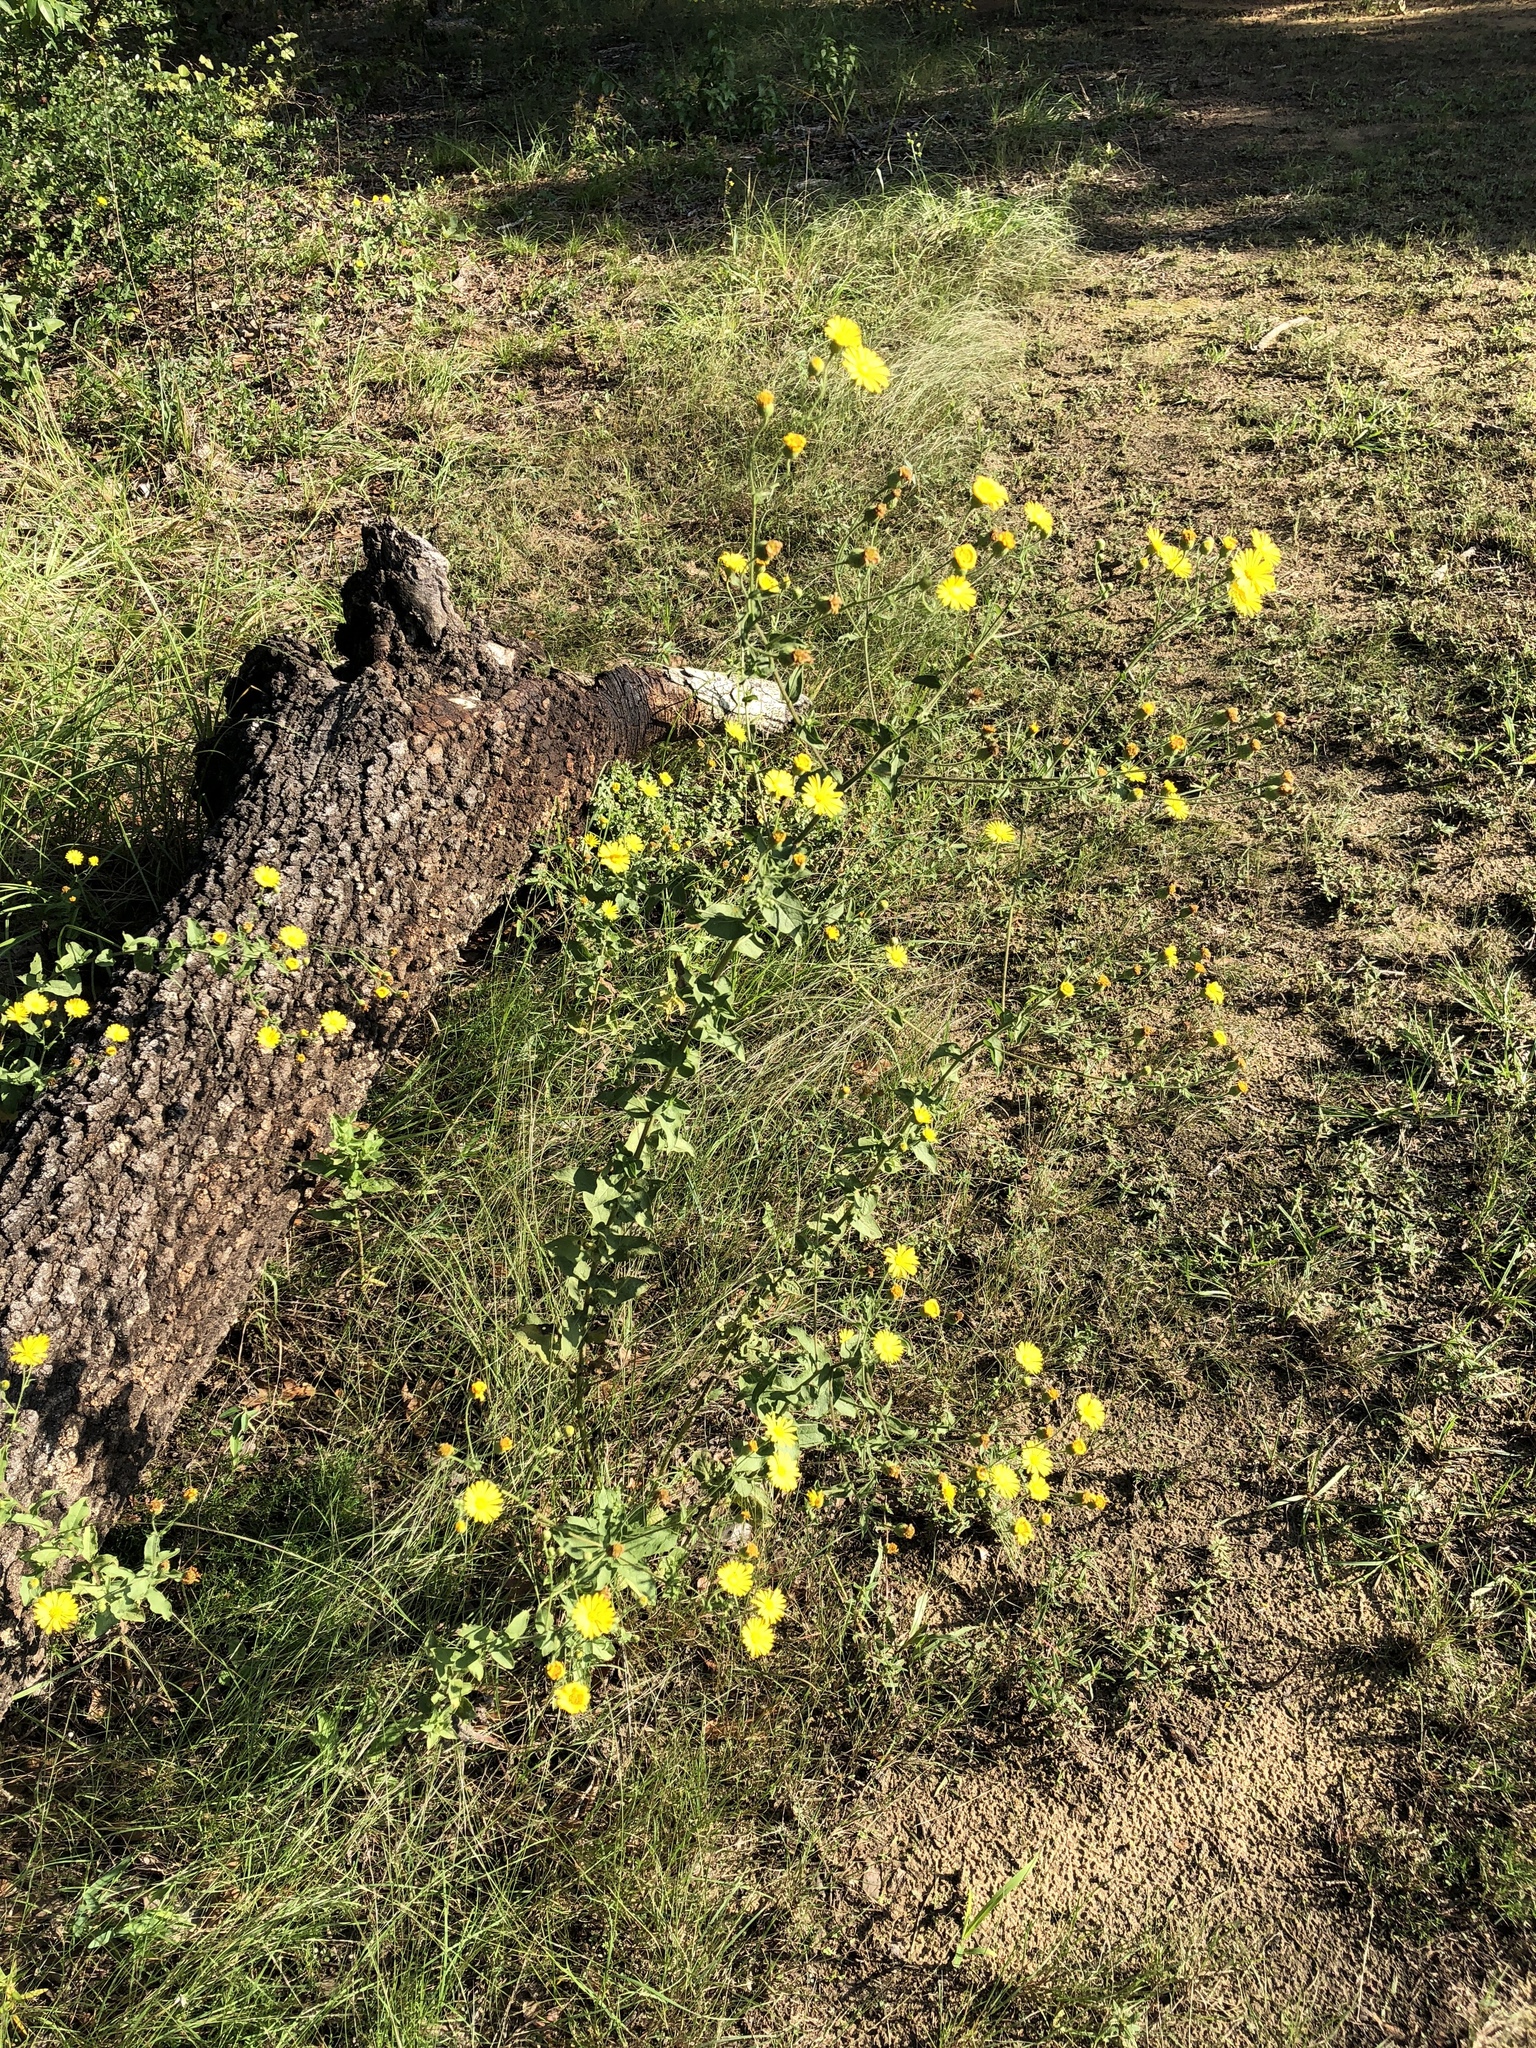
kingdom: Plantae
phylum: Tracheophyta
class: Magnoliopsida
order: Asterales
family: Asteraceae
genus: Heterotheca
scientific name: Heterotheca subaxillaris
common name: Camphorweed
